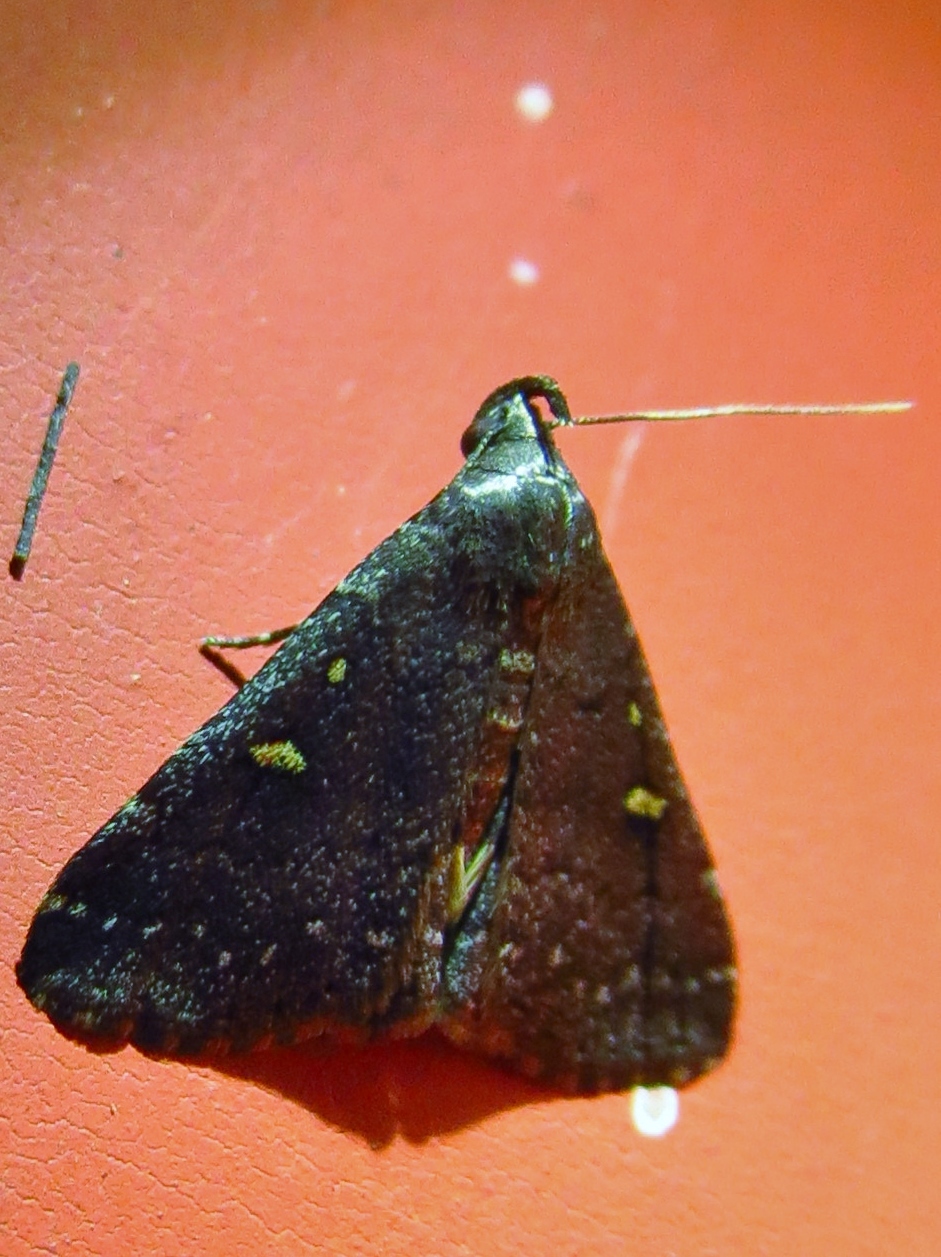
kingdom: Animalia
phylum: Arthropoda
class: Insecta
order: Lepidoptera
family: Erebidae
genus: Tetanolita
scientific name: Tetanolita mynesalis
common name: Smoky tetanolita moth
